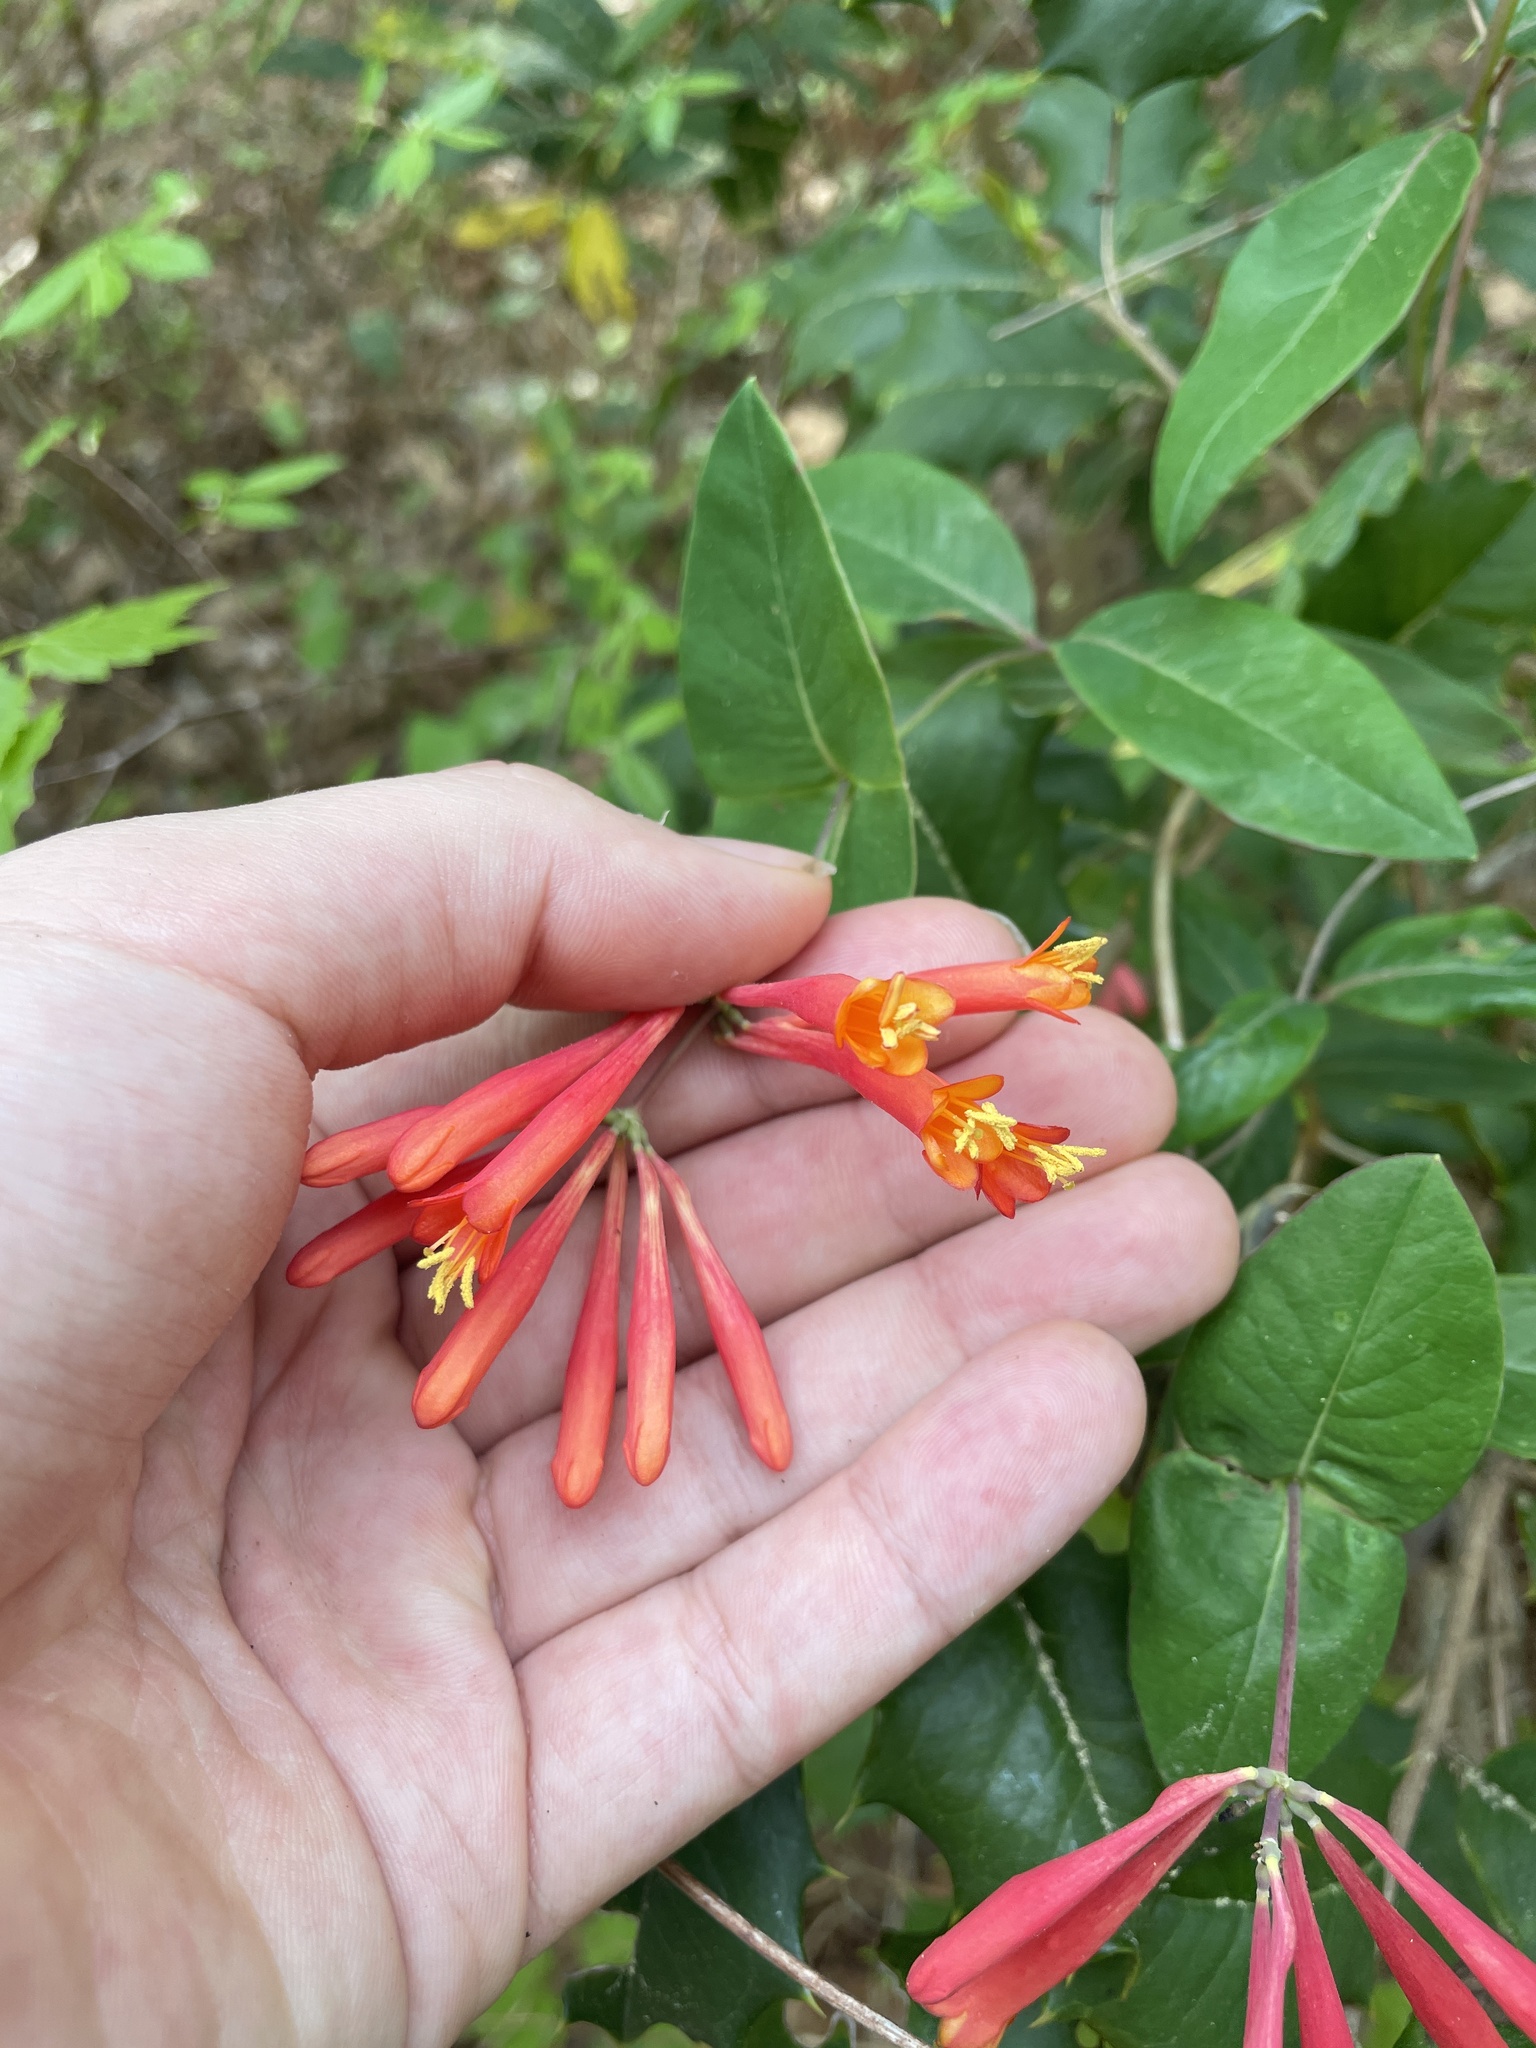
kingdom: Plantae
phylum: Tracheophyta
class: Magnoliopsida
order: Dipsacales
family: Caprifoliaceae
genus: Lonicera
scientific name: Lonicera sempervirens
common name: Coral honeysuckle
